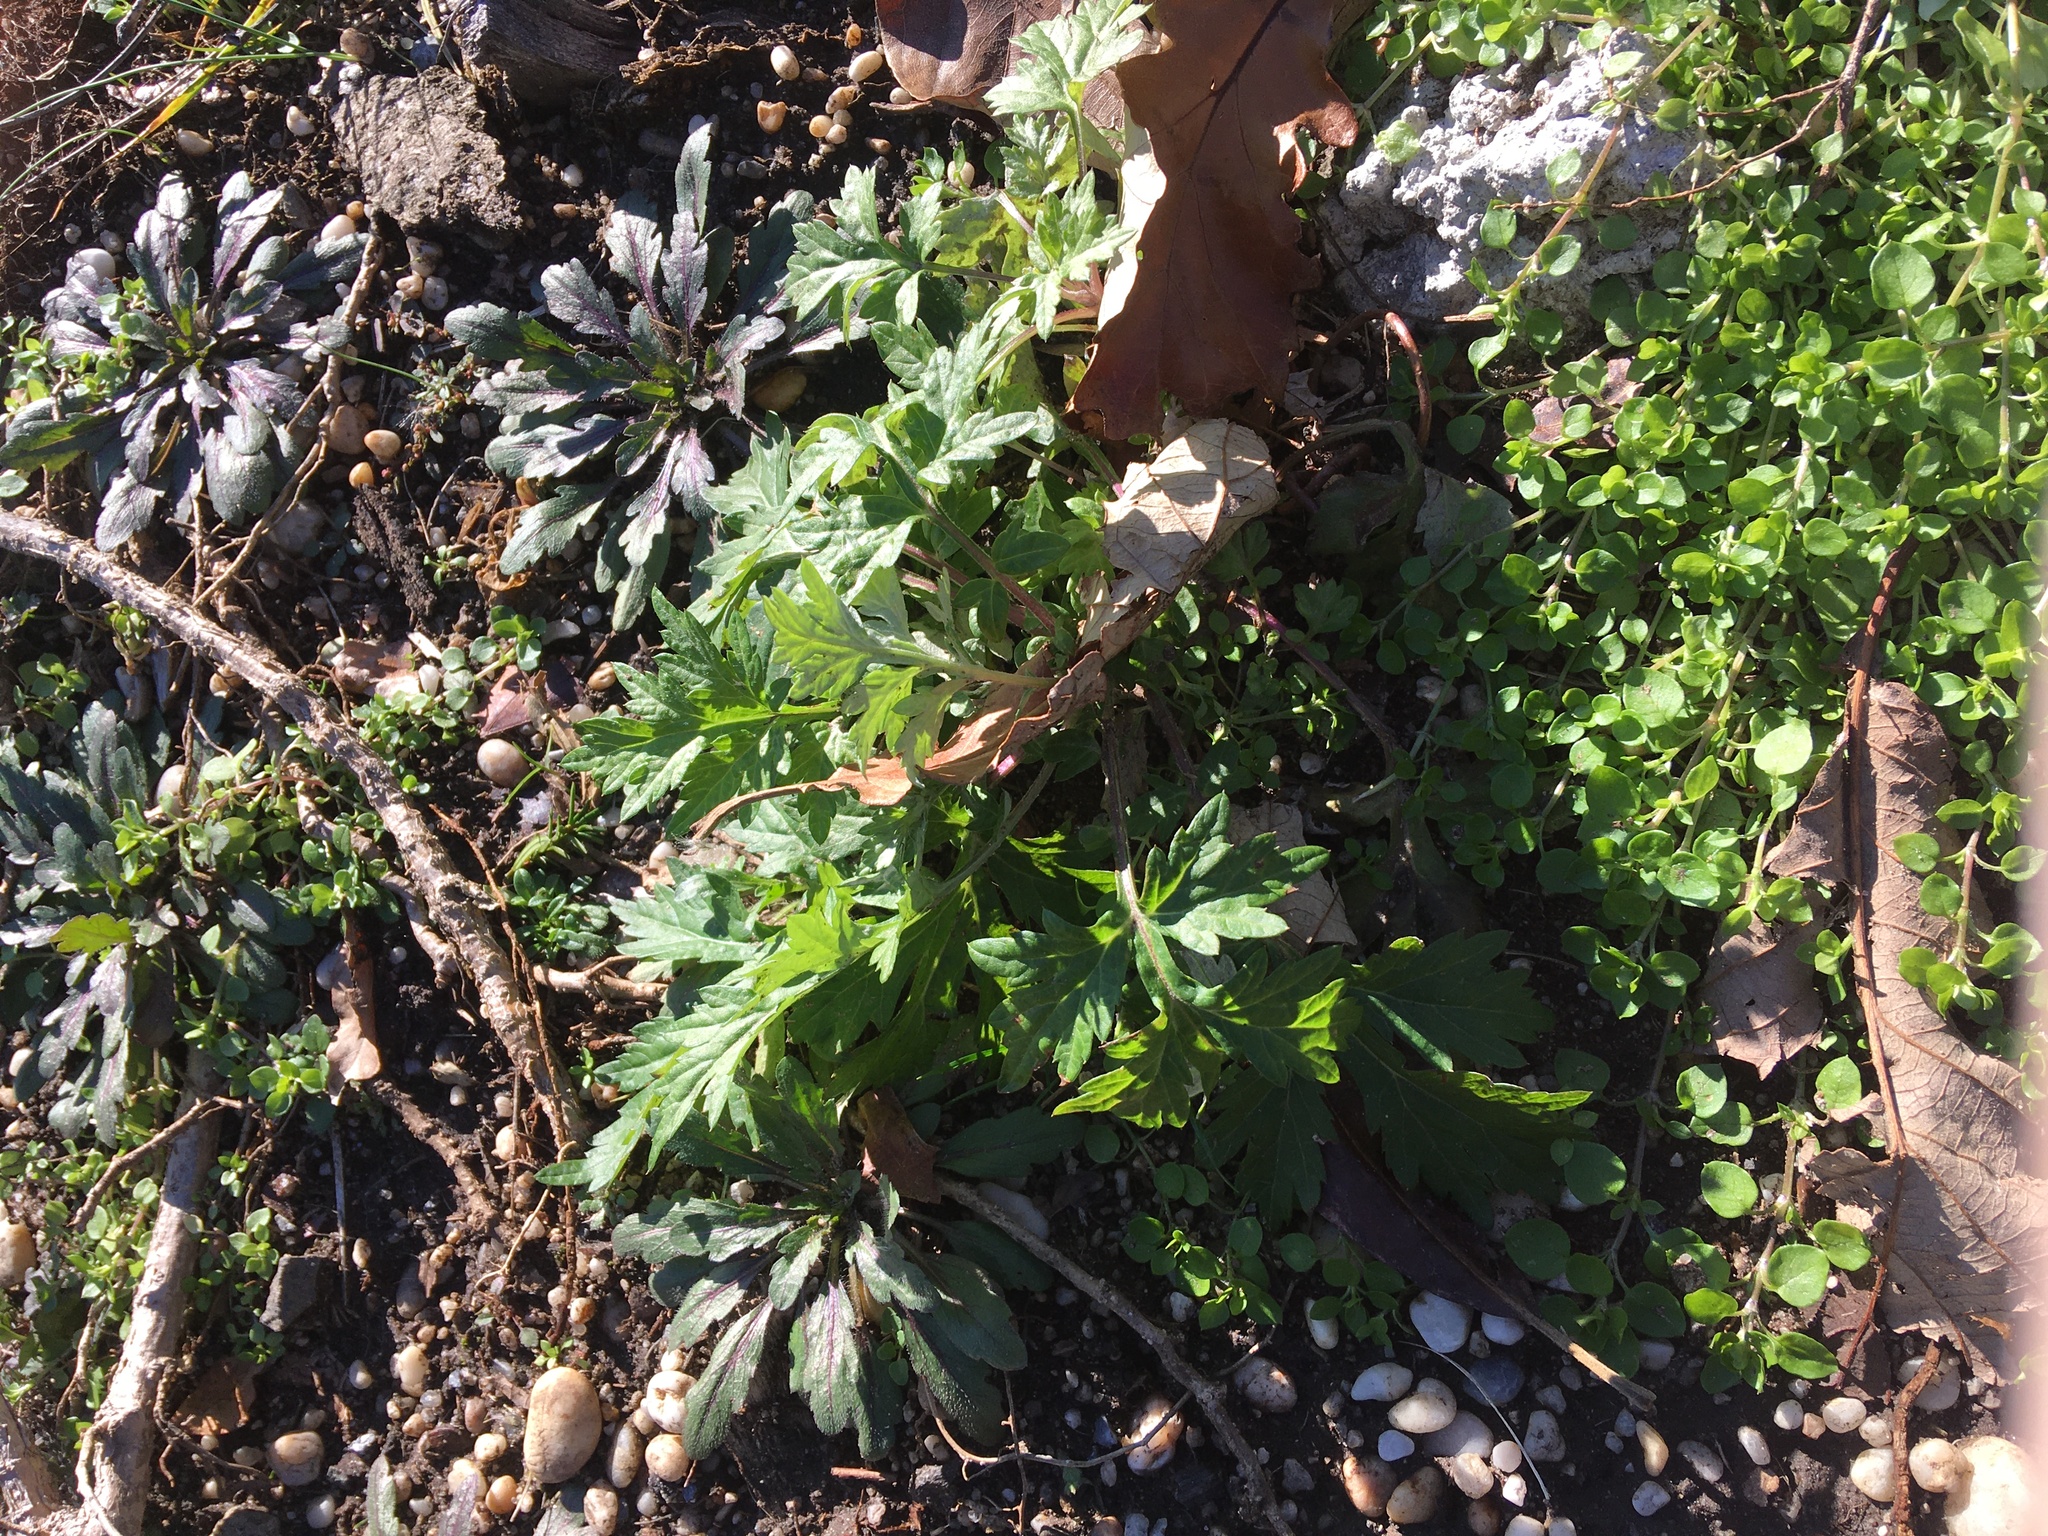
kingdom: Plantae
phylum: Tracheophyta
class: Magnoliopsida
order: Asterales
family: Asteraceae
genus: Artemisia
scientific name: Artemisia vulgaris
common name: Mugwort
